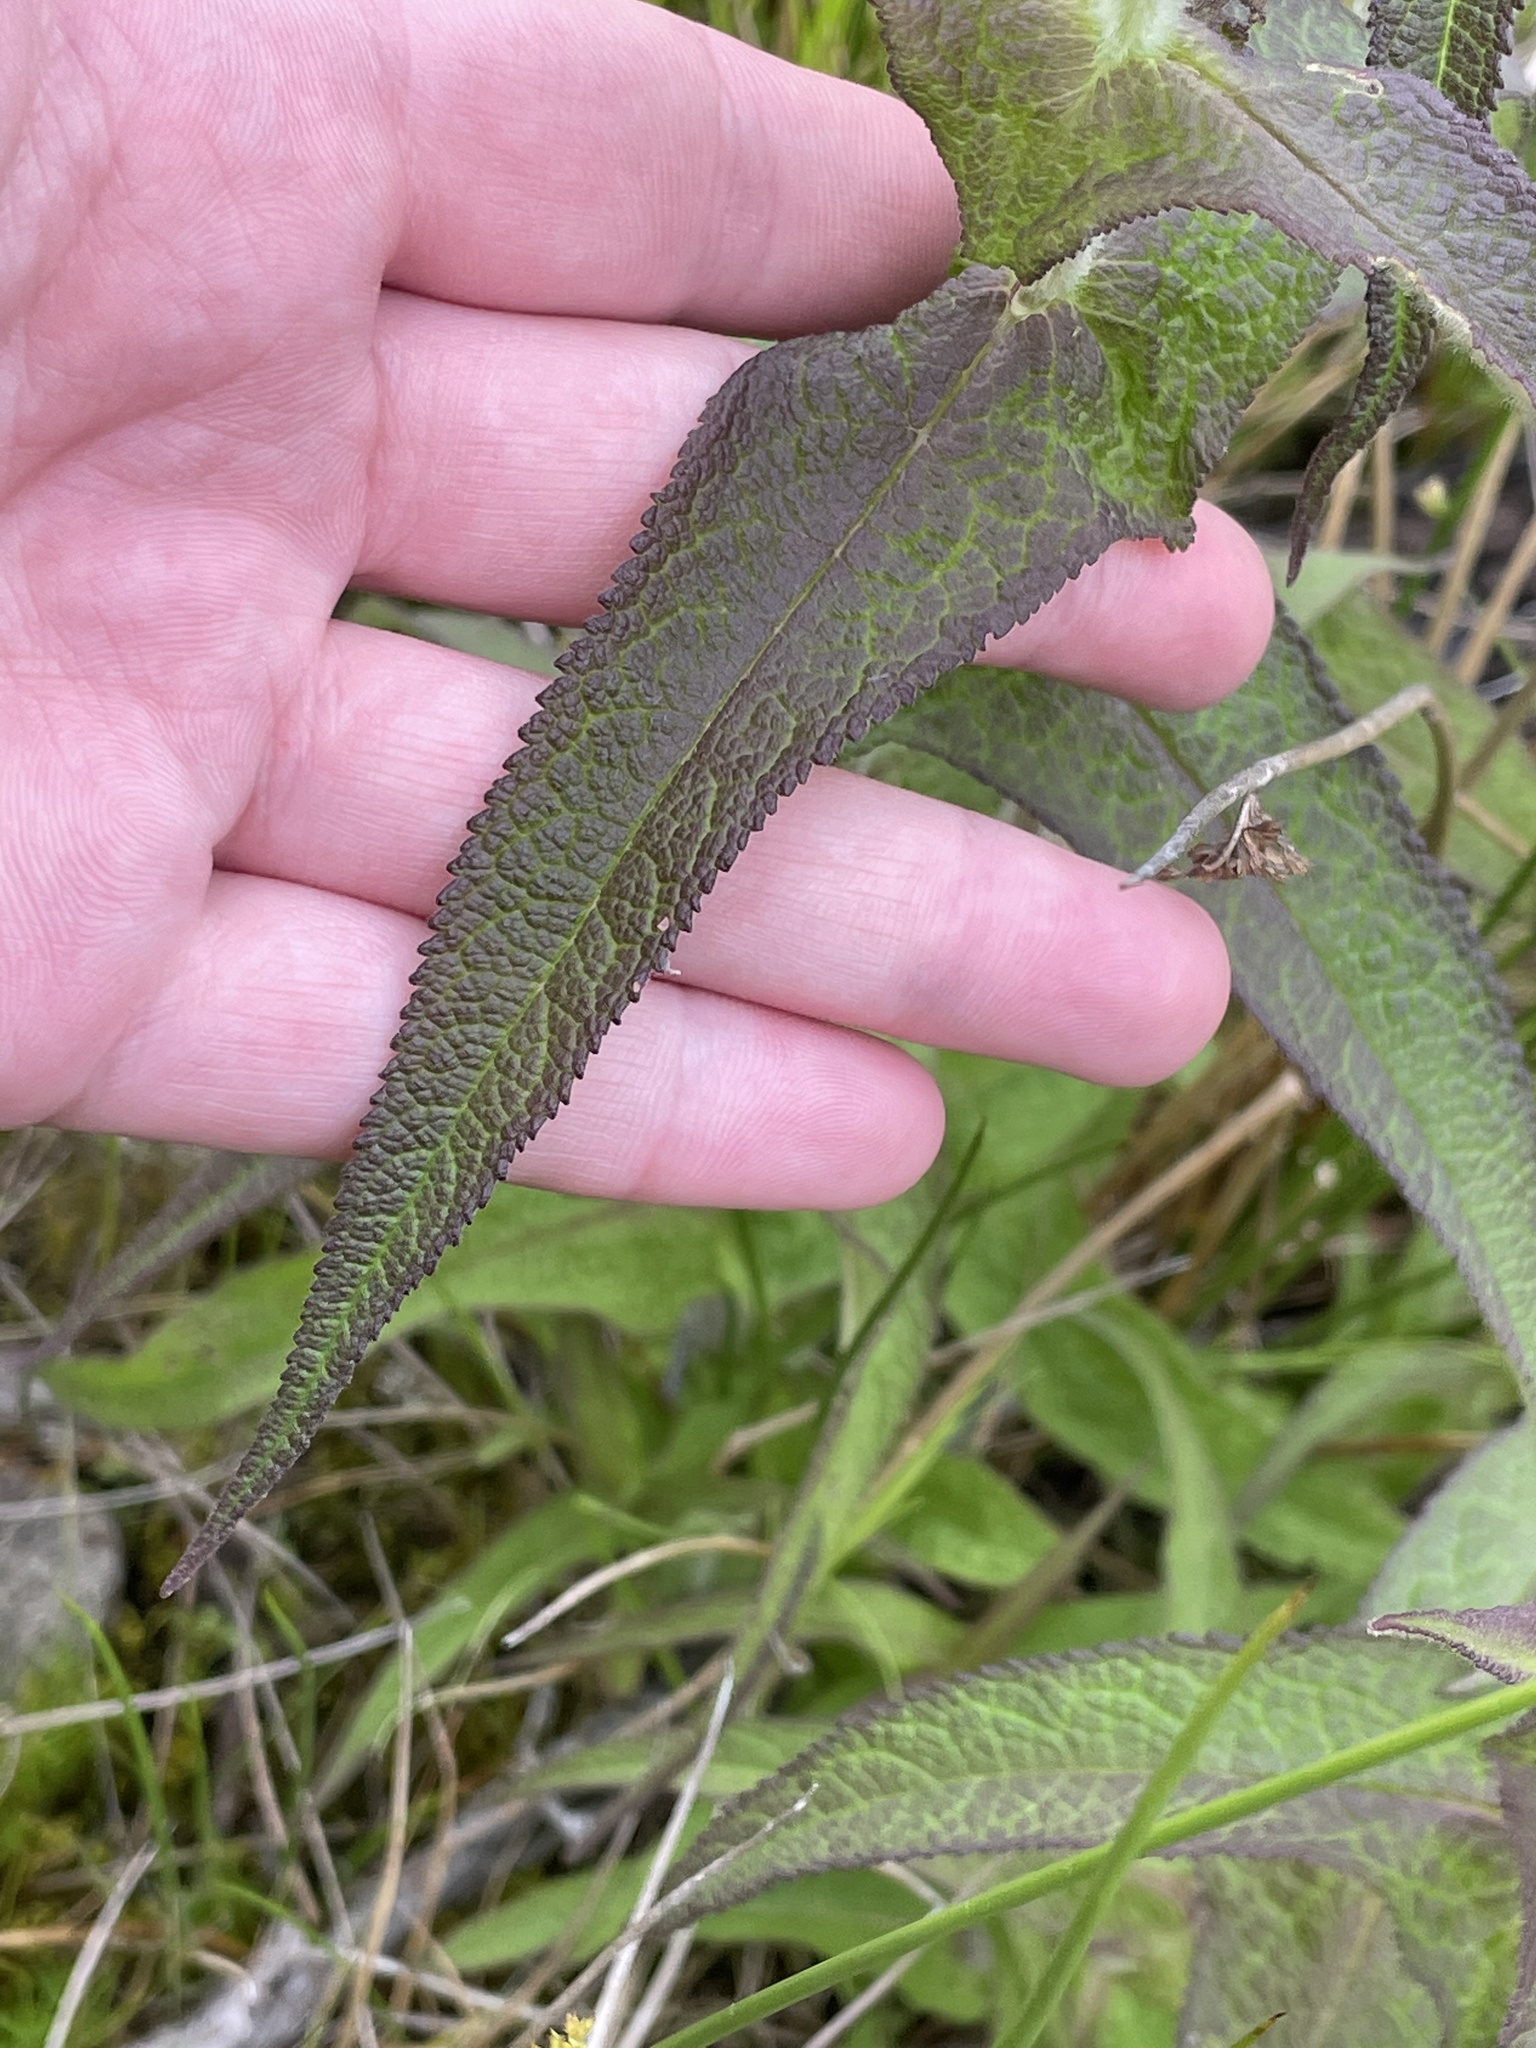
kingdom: Plantae
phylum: Tracheophyta
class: Magnoliopsida
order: Asterales
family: Asteraceae
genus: Eupatorium
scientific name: Eupatorium perfoliatum
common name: Boneset
